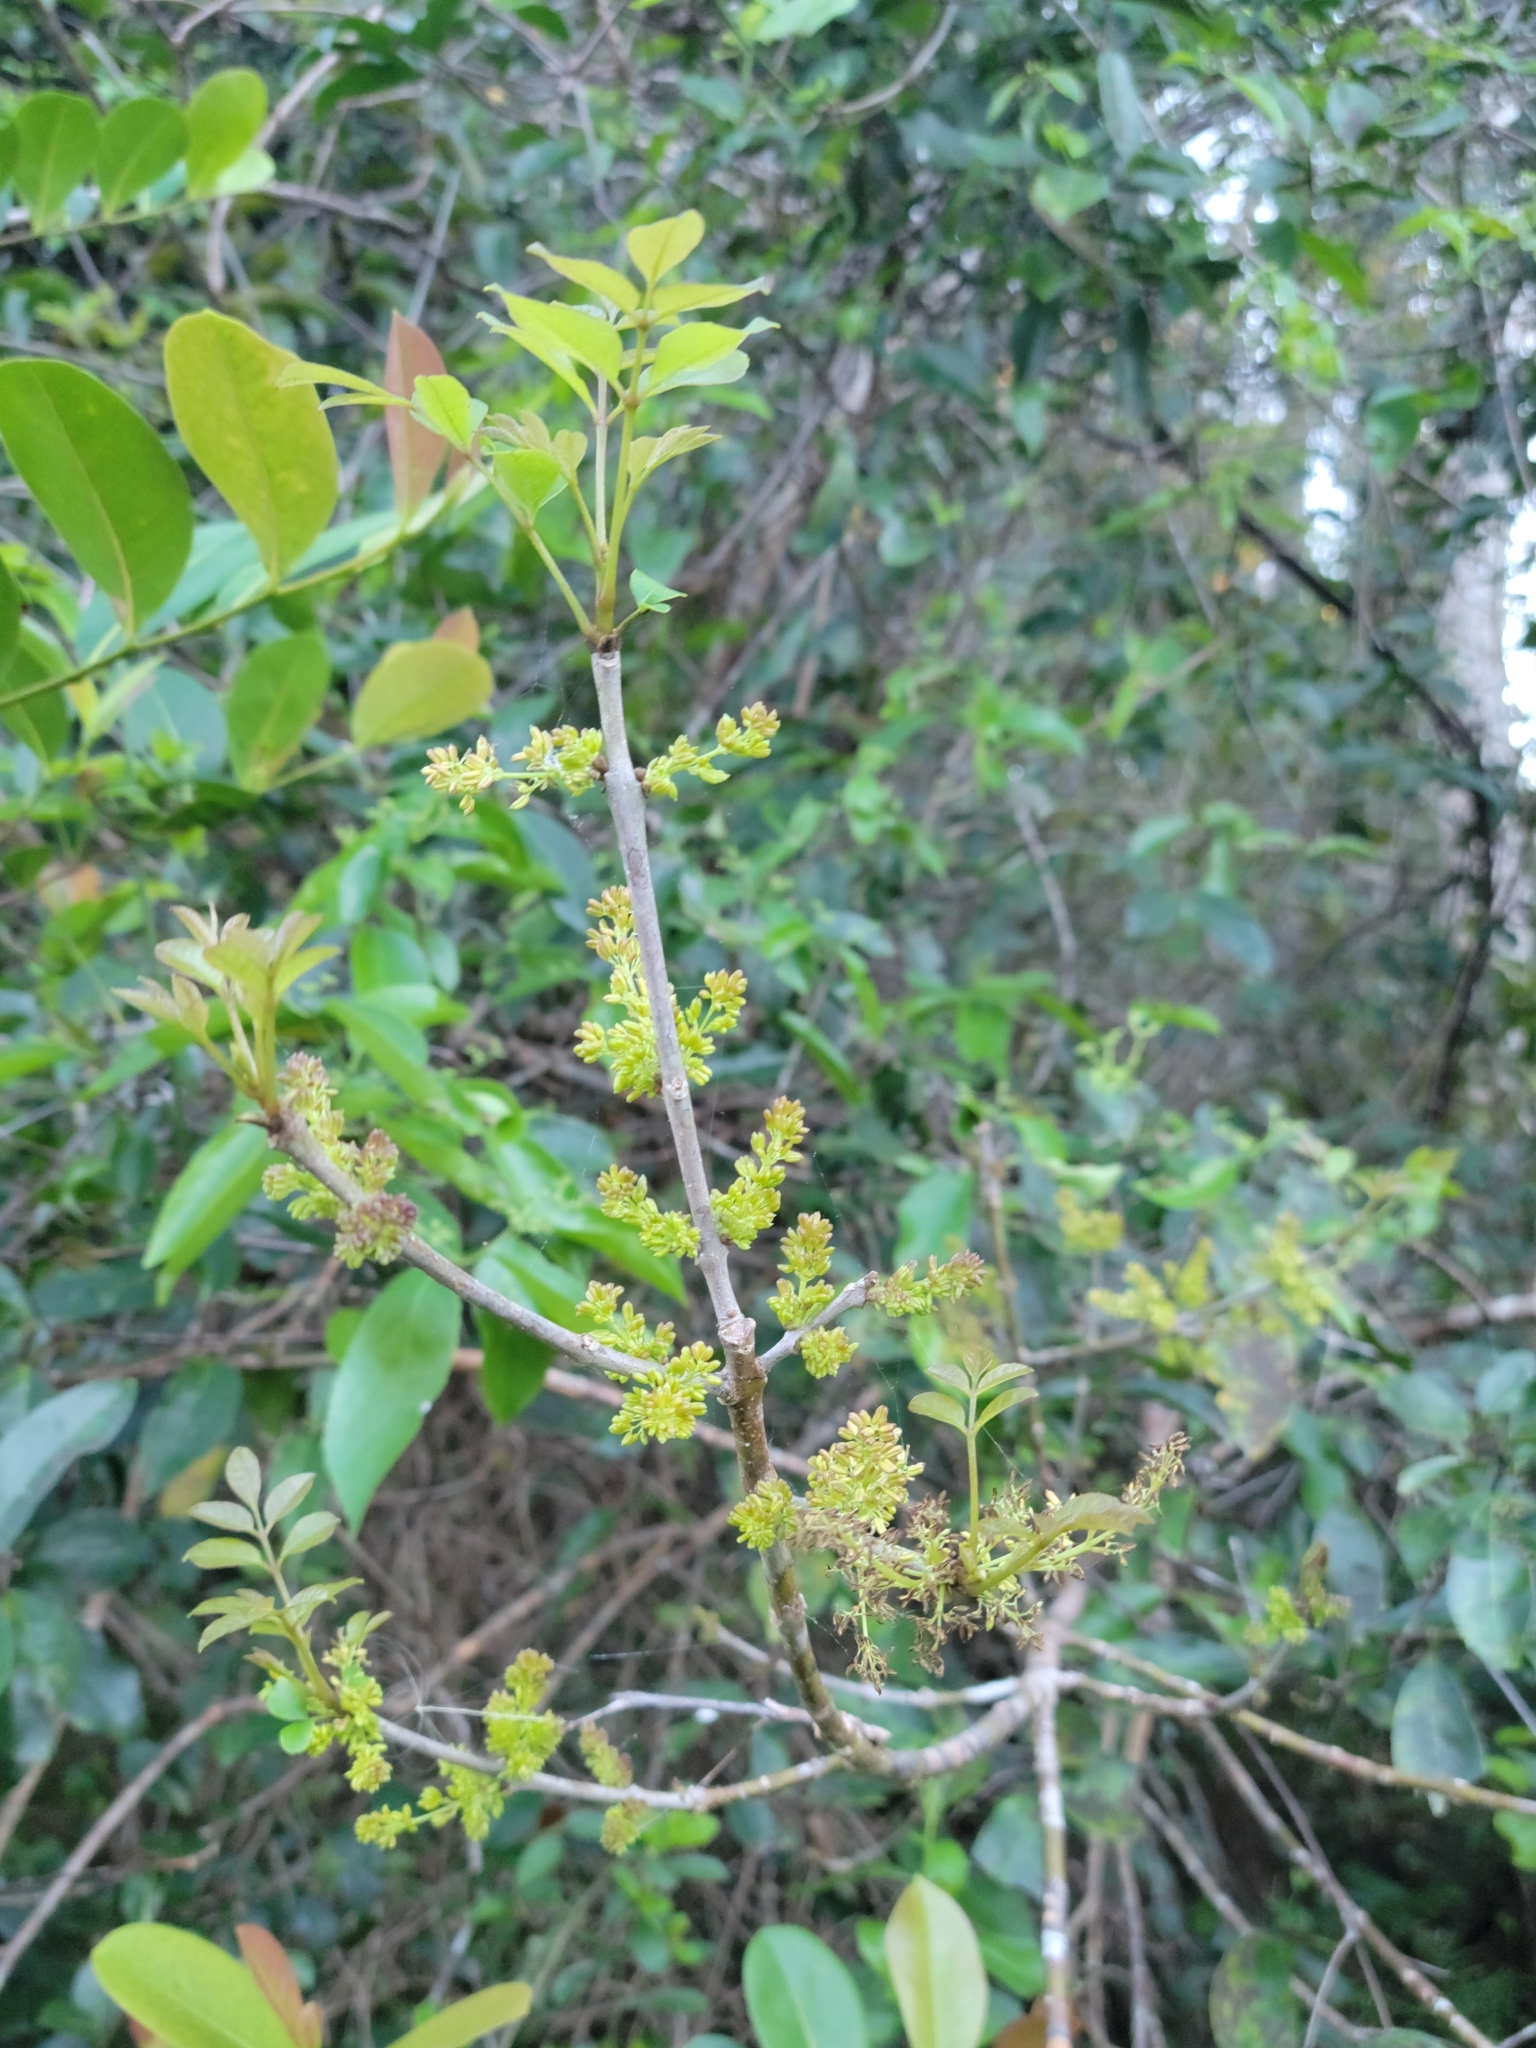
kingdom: Plantae
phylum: Tracheophyta
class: Magnoliopsida
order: Lamiales
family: Oleaceae
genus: Fraxinus
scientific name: Fraxinus caroliniana
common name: Carolina ash
